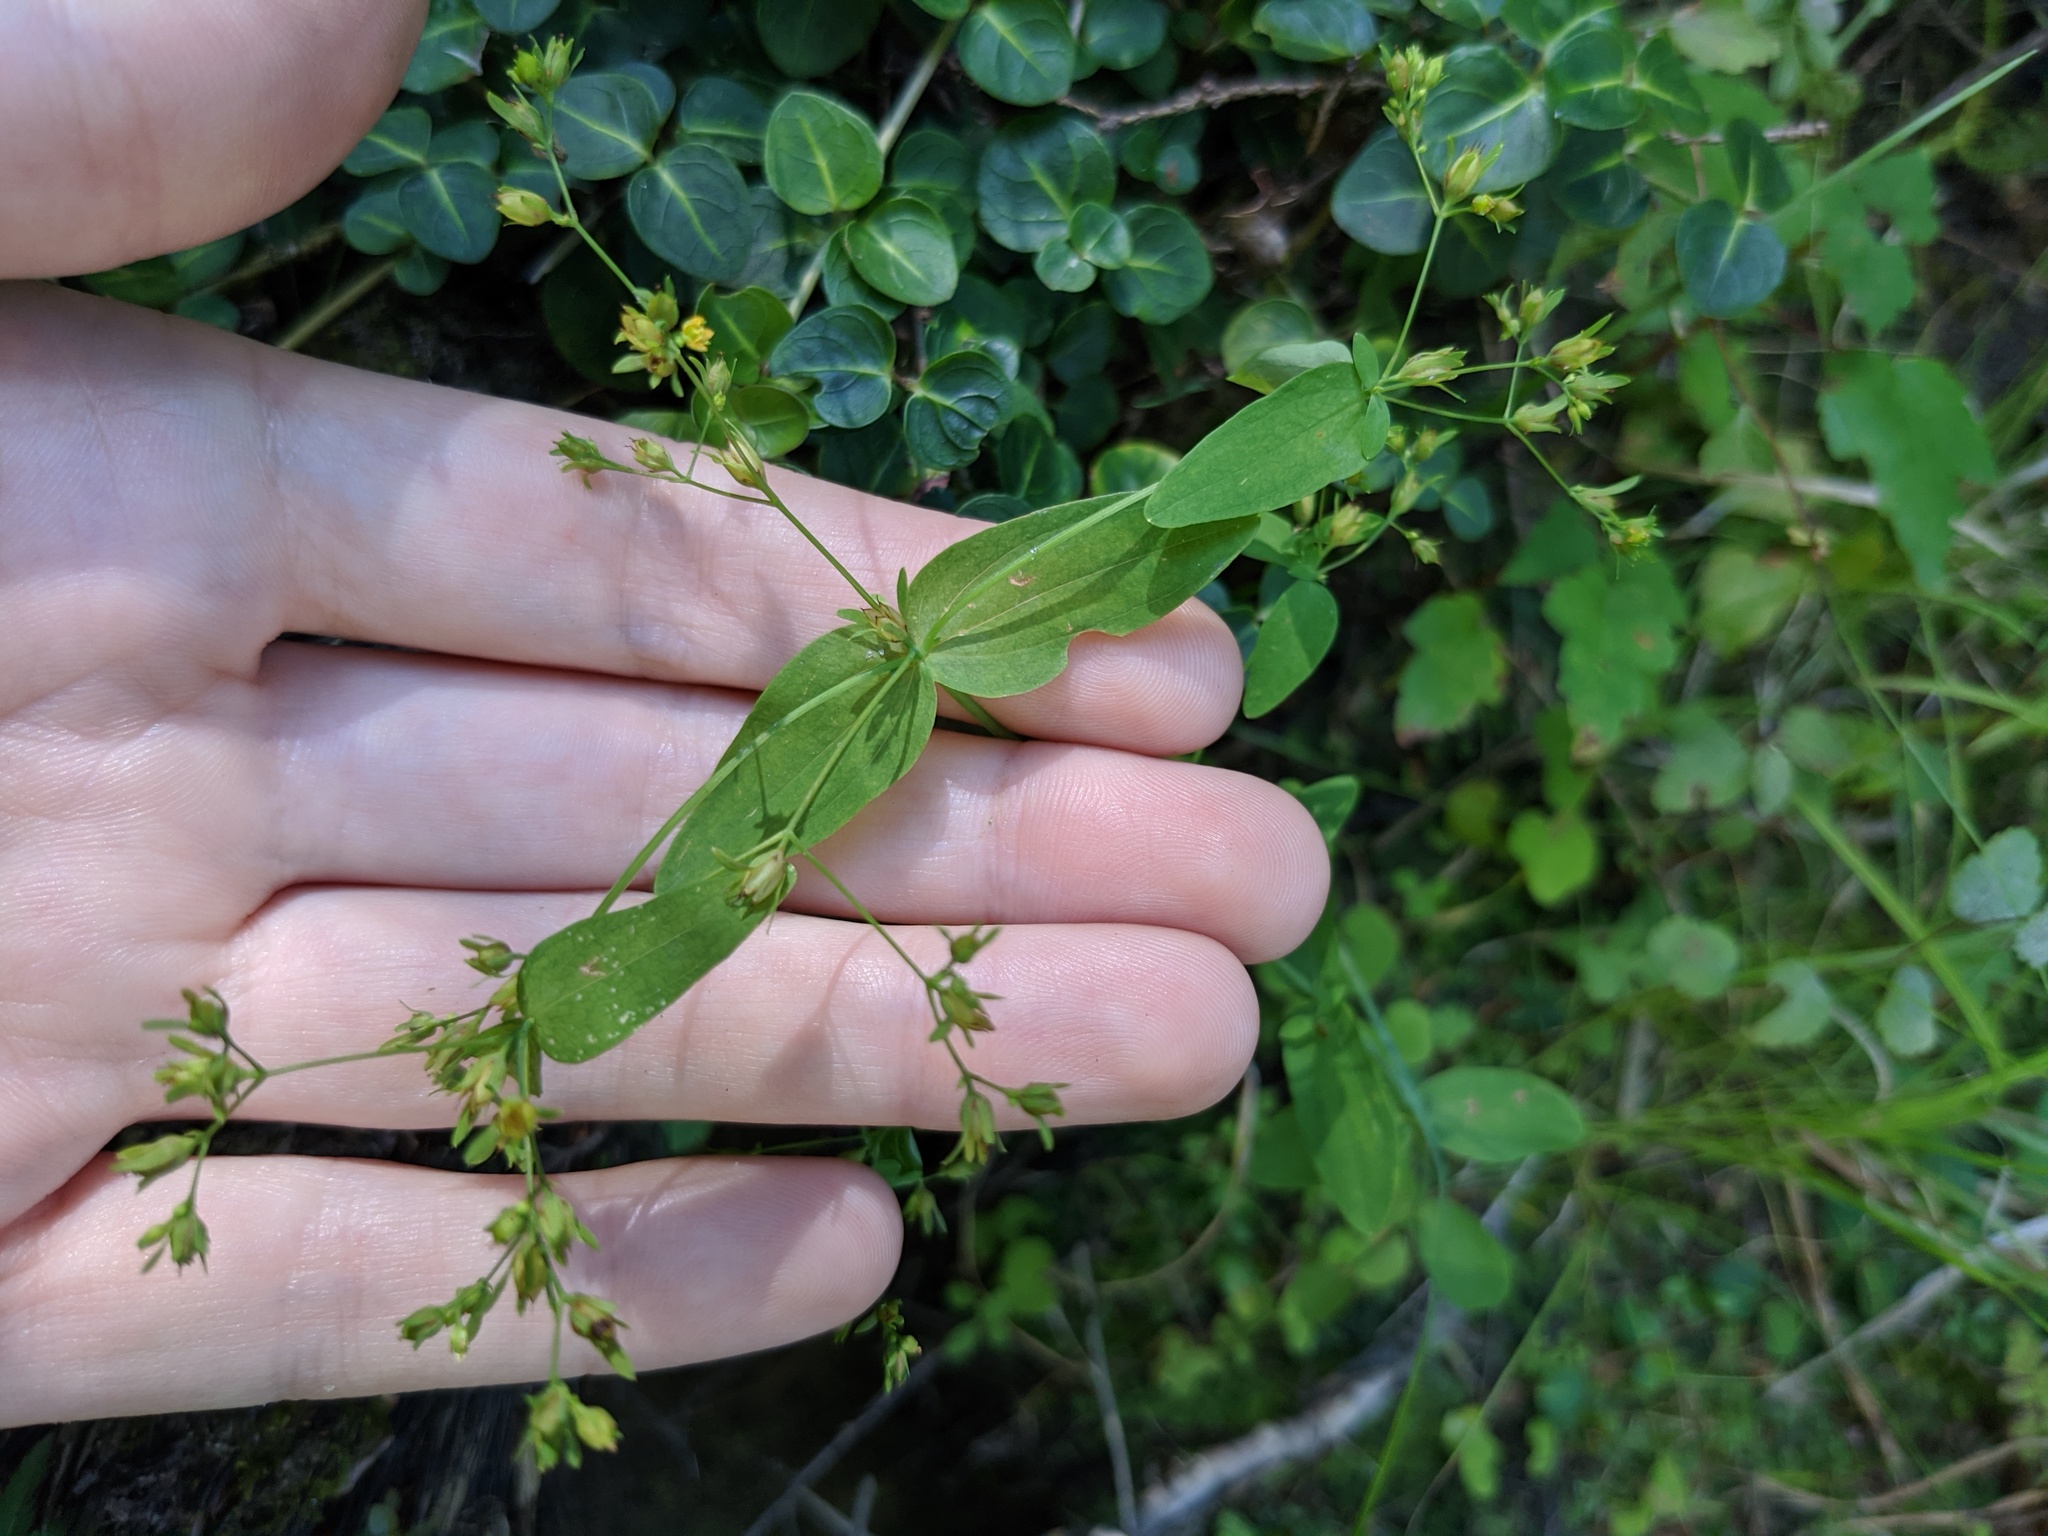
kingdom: Plantae
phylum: Tracheophyta
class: Magnoliopsida
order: Malpighiales
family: Hypericaceae
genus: Hypericum
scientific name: Hypericum mutilum
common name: Dwarf st. john's-wort
